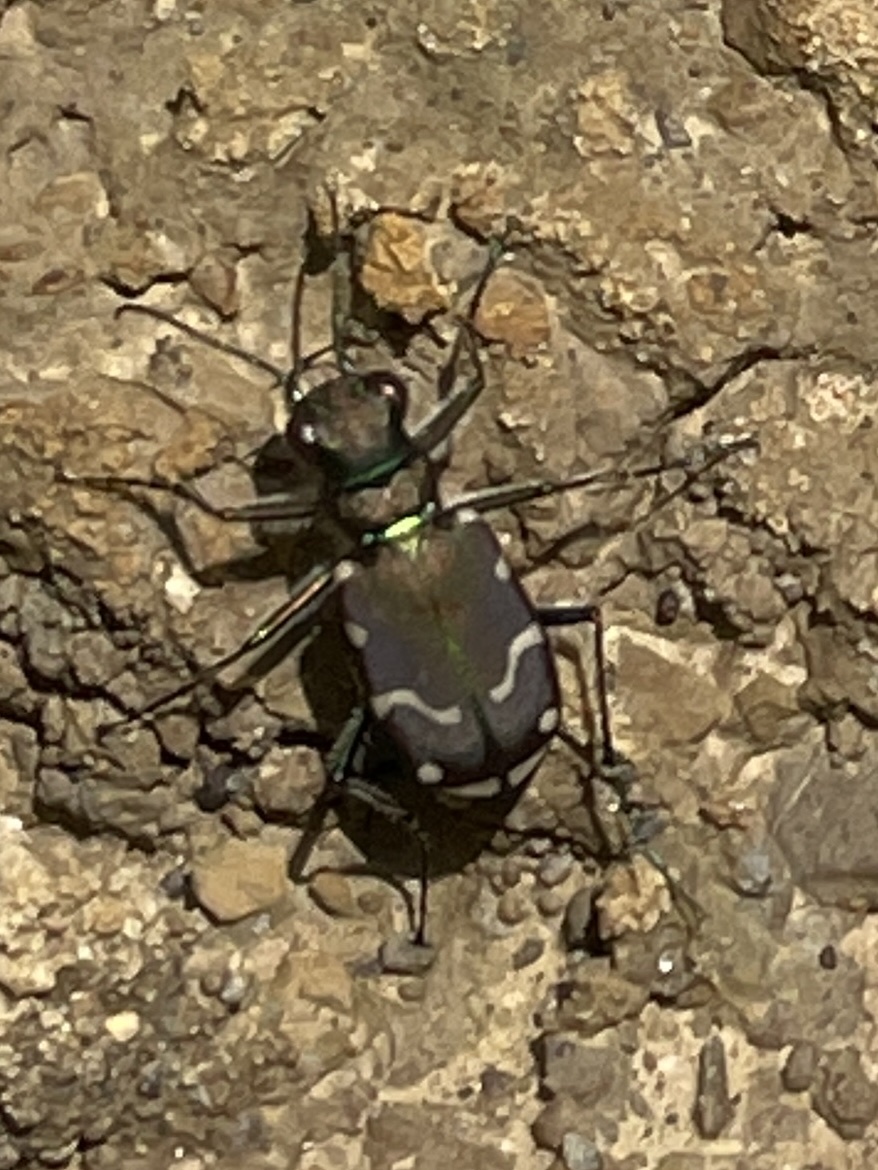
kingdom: Animalia
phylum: Arthropoda
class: Insecta
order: Coleoptera
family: Carabidae
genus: Cicindela
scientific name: Cicindela limbalis
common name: Common claybank tiger beetle
